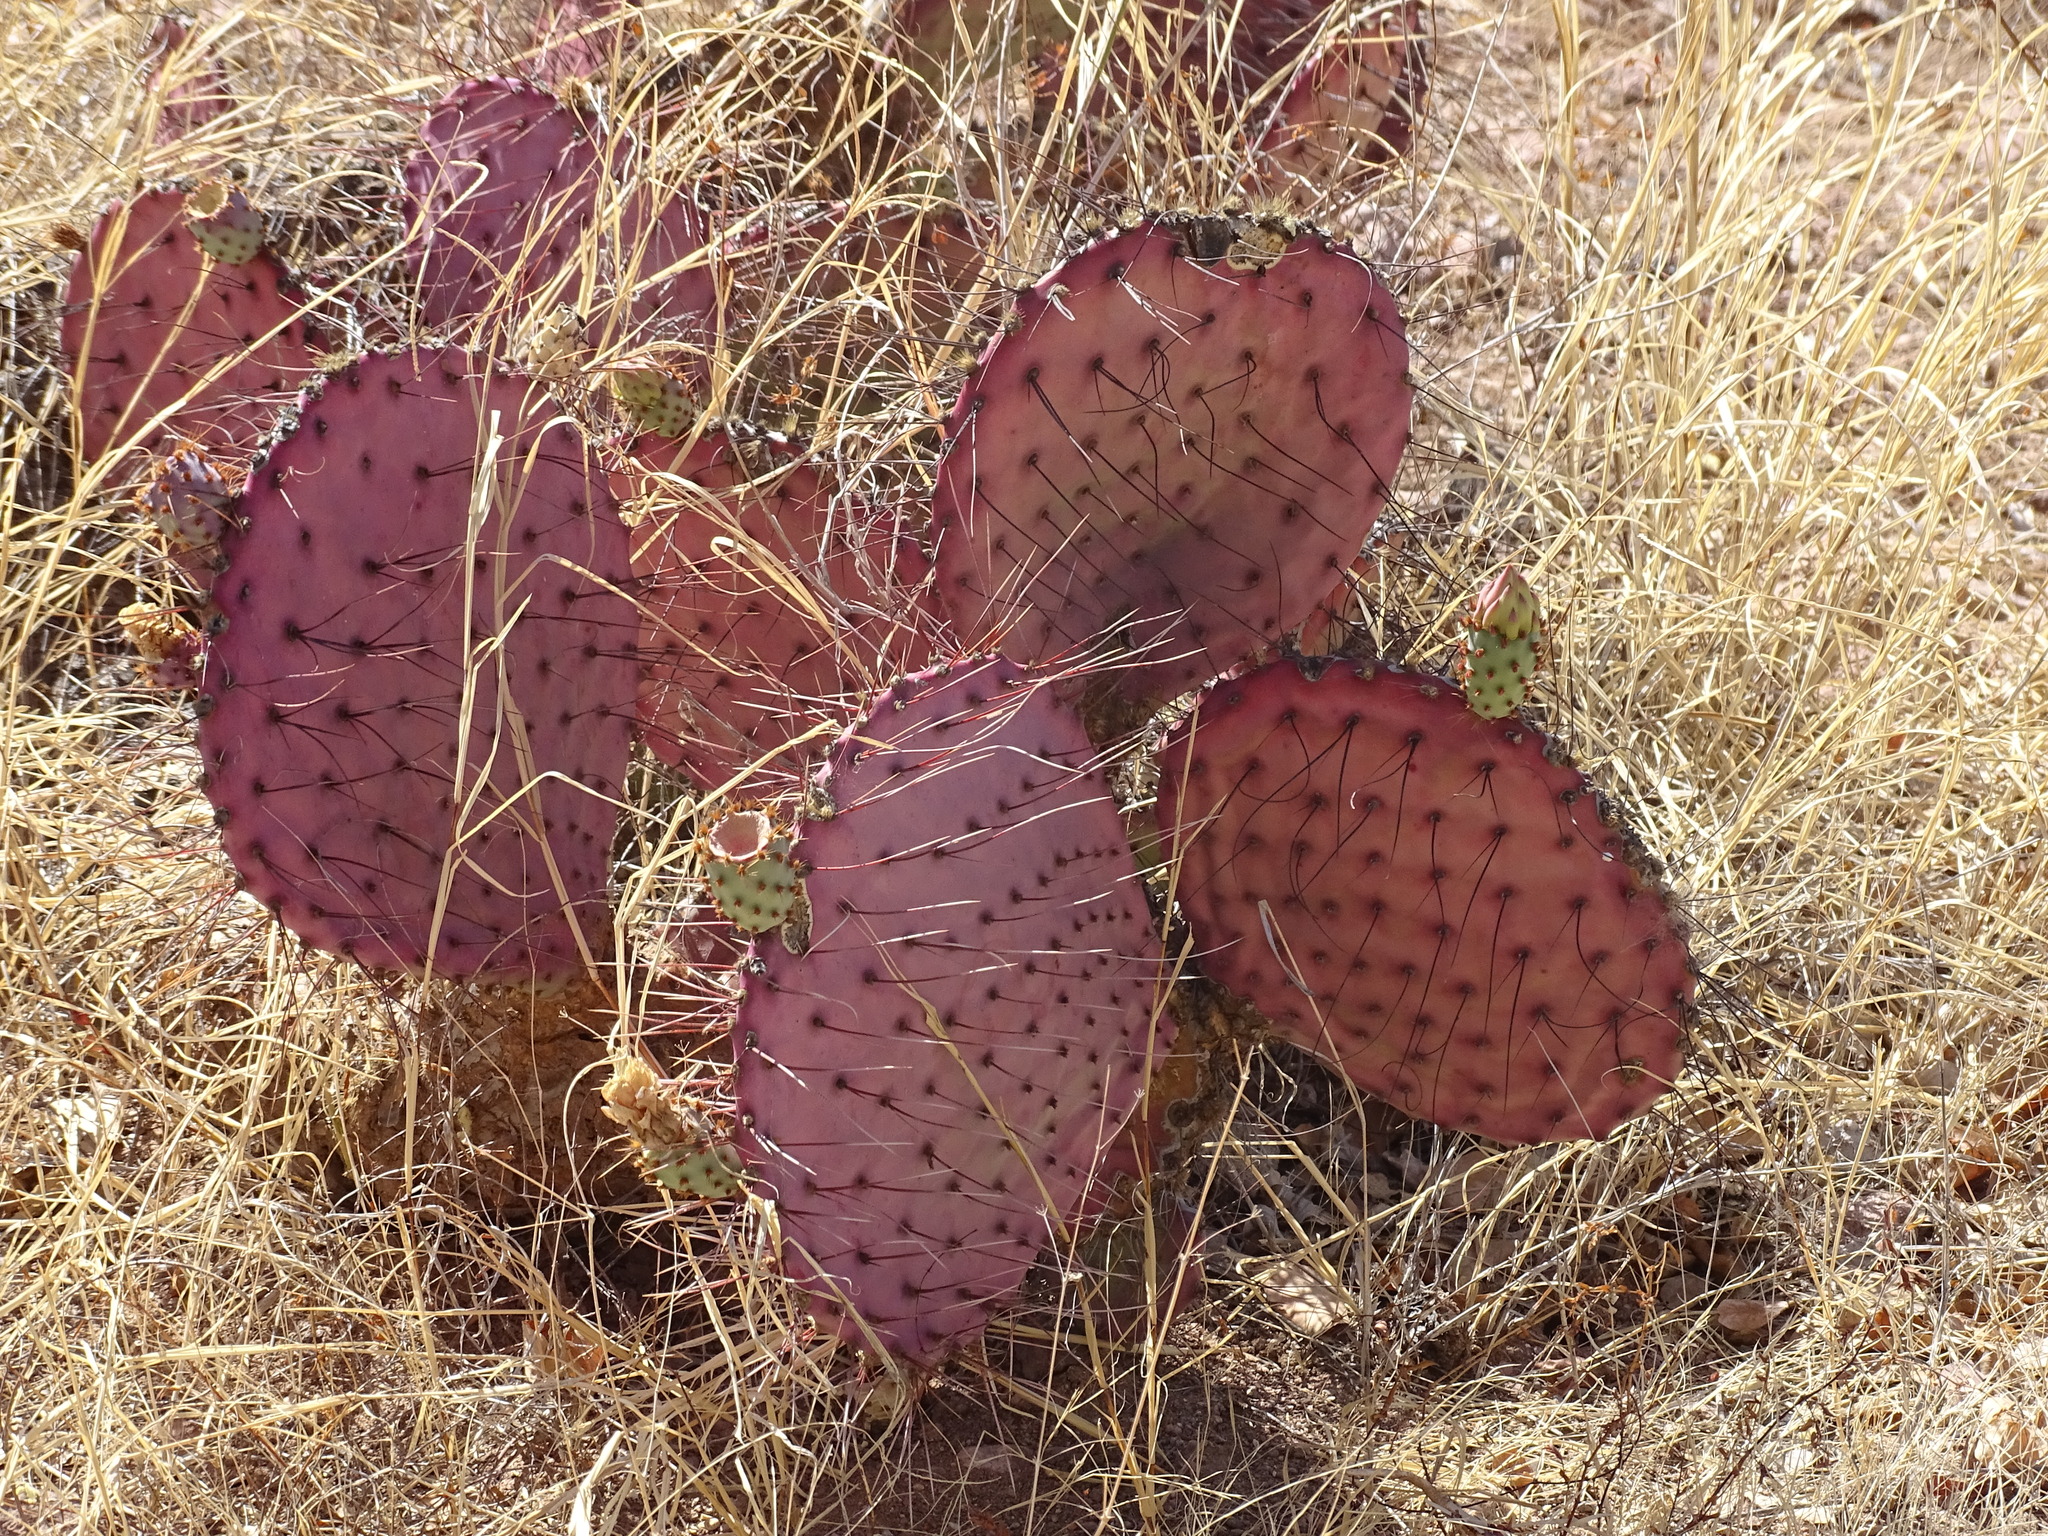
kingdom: Plantae
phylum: Tracheophyta
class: Magnoliopsida
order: Caryophyllales
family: Cactaceae
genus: Opuntia
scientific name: Opuntia gosseliniana
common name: Violet prickly-pear
